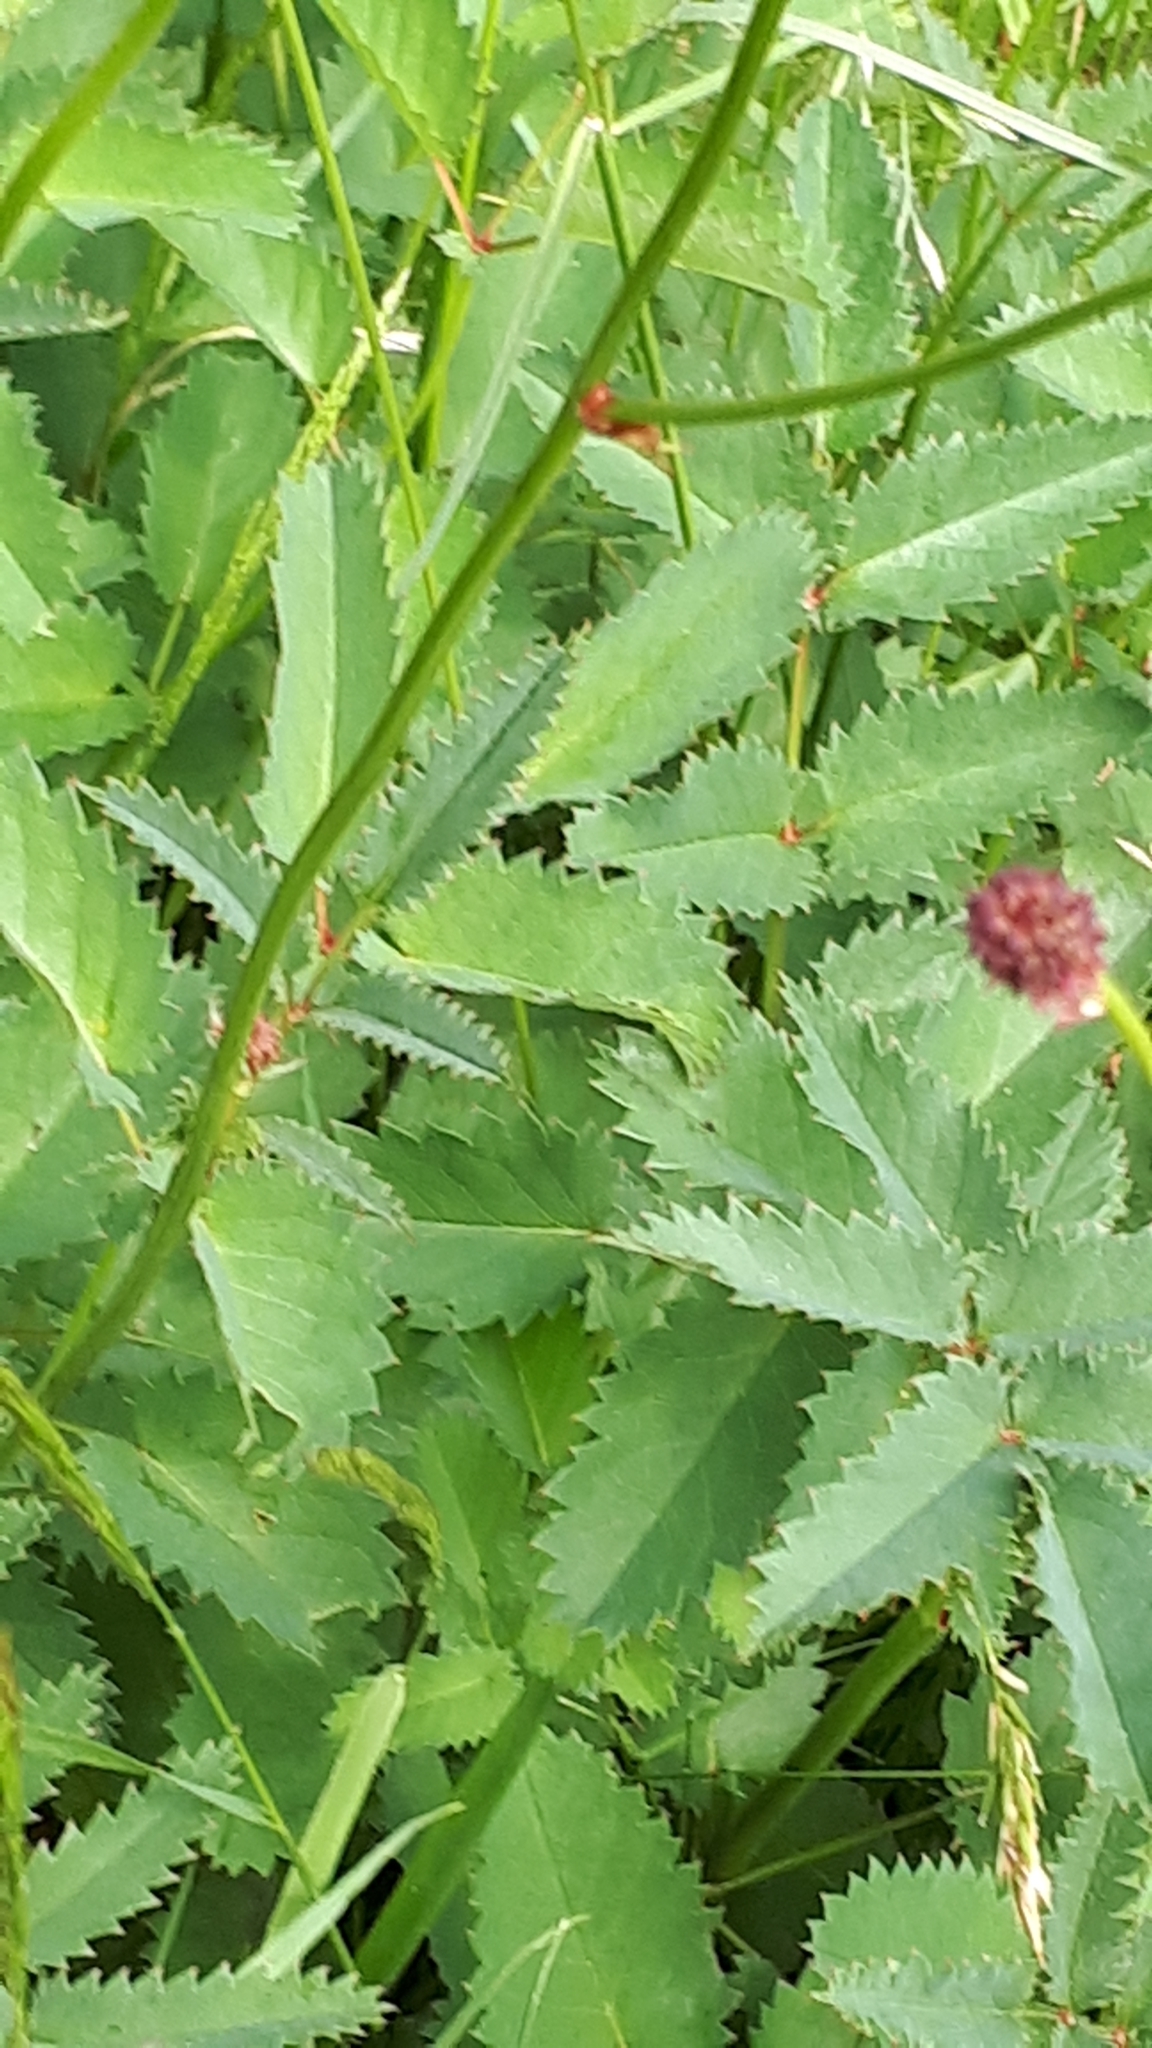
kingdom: Plantae
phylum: Tracheophyta
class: Magnoliopsida
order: Rosales
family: Rosaceae
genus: Sanguisorba
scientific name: Sanguisorba officinalis
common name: Great burnet
